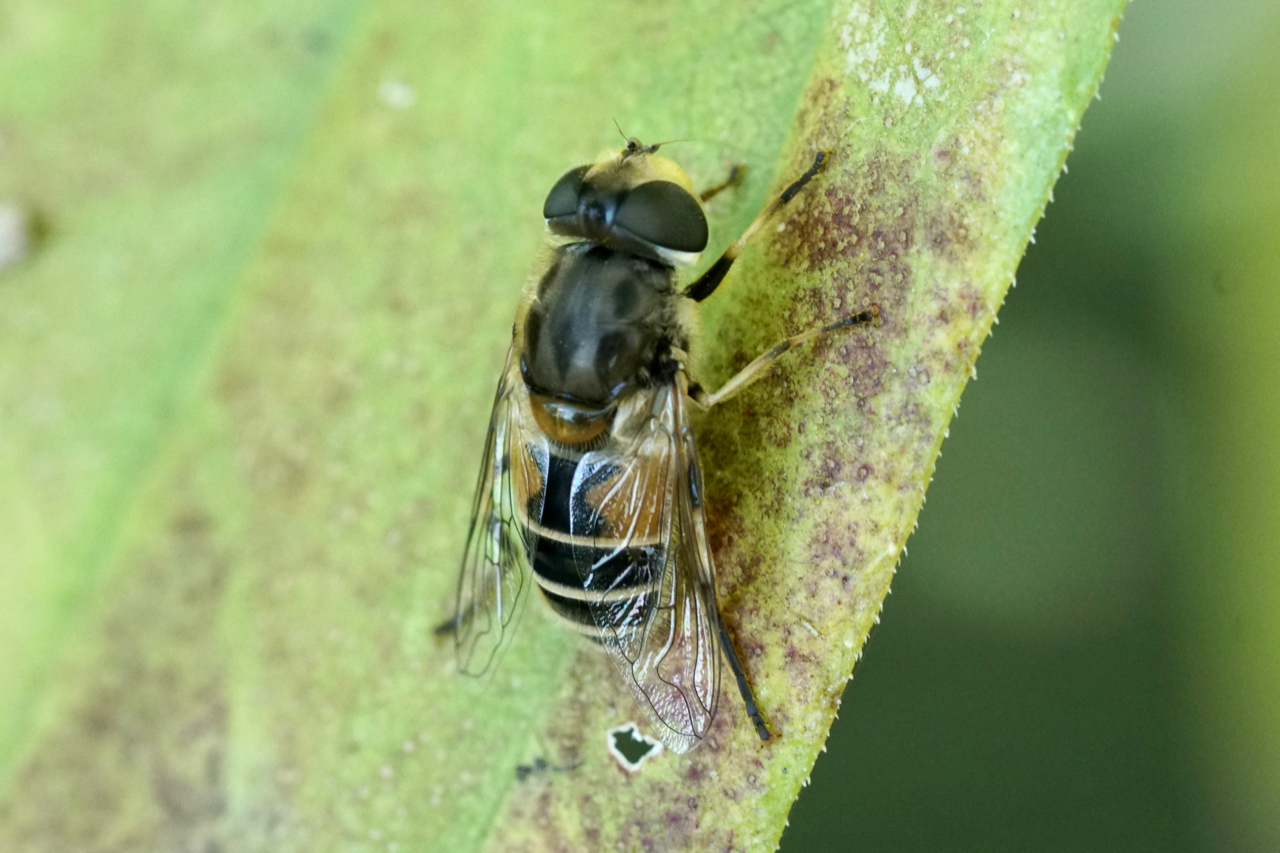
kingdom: Animalia
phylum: Arthropoda
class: Insecta
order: Diptera
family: Syrphidae
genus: Eristalis
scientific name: Eristalis arbustorum
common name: Hover fly
